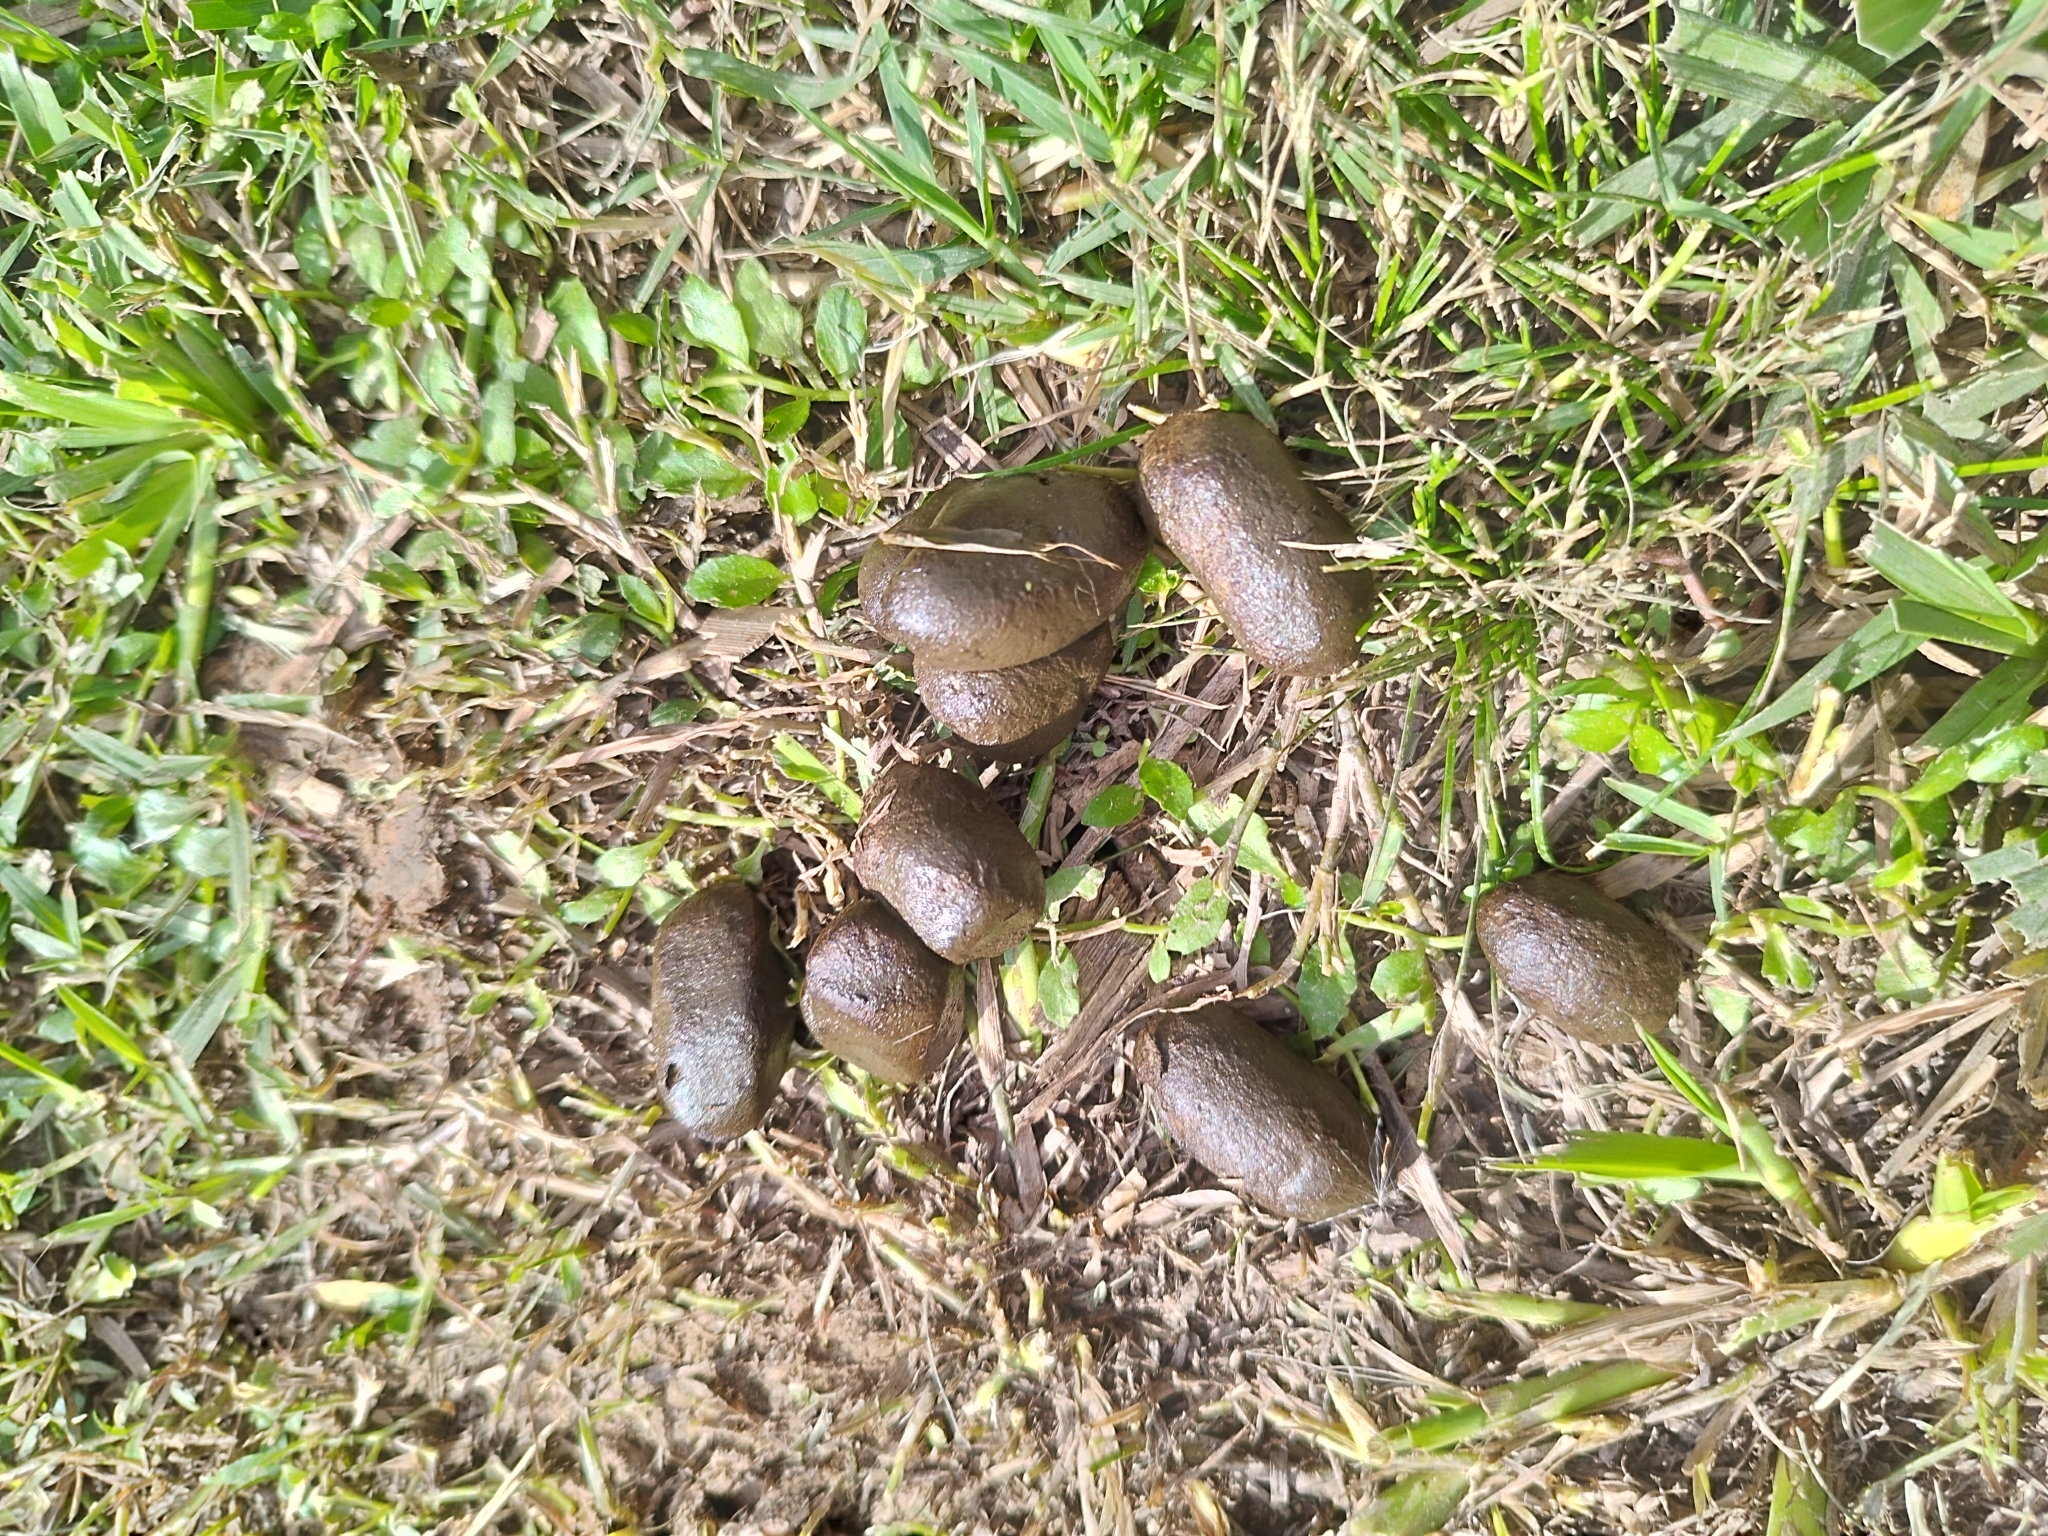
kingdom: Animalia
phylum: Chordata
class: Mammalia
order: Rodentia
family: Caviidae
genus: Hydrochoerus
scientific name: Hydrochoerus hydrochaeris
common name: Capybara
